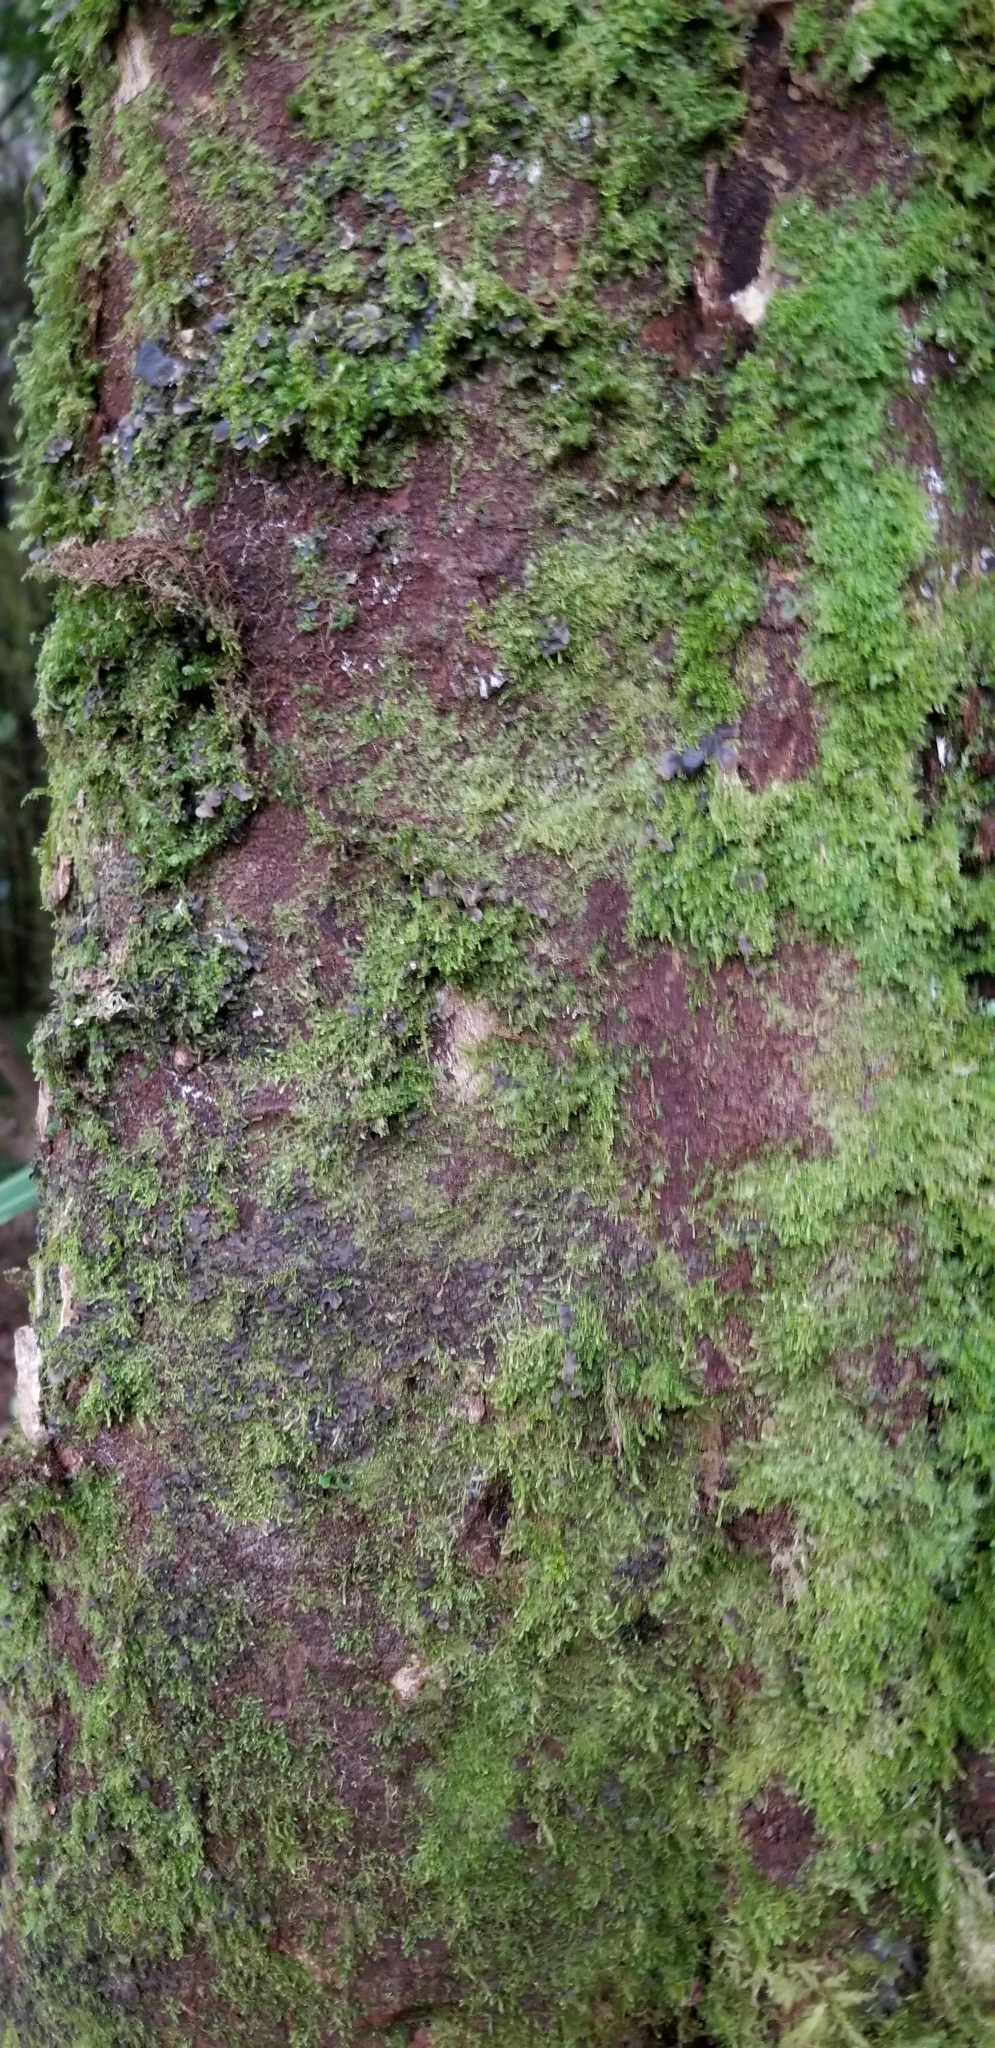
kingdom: Plantae
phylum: Tracheophyta
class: Pinopsida
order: Pinales
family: Podocarpaceae
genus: Dacrycarpus
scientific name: Dacrycarpus dacrydioides
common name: White pine
